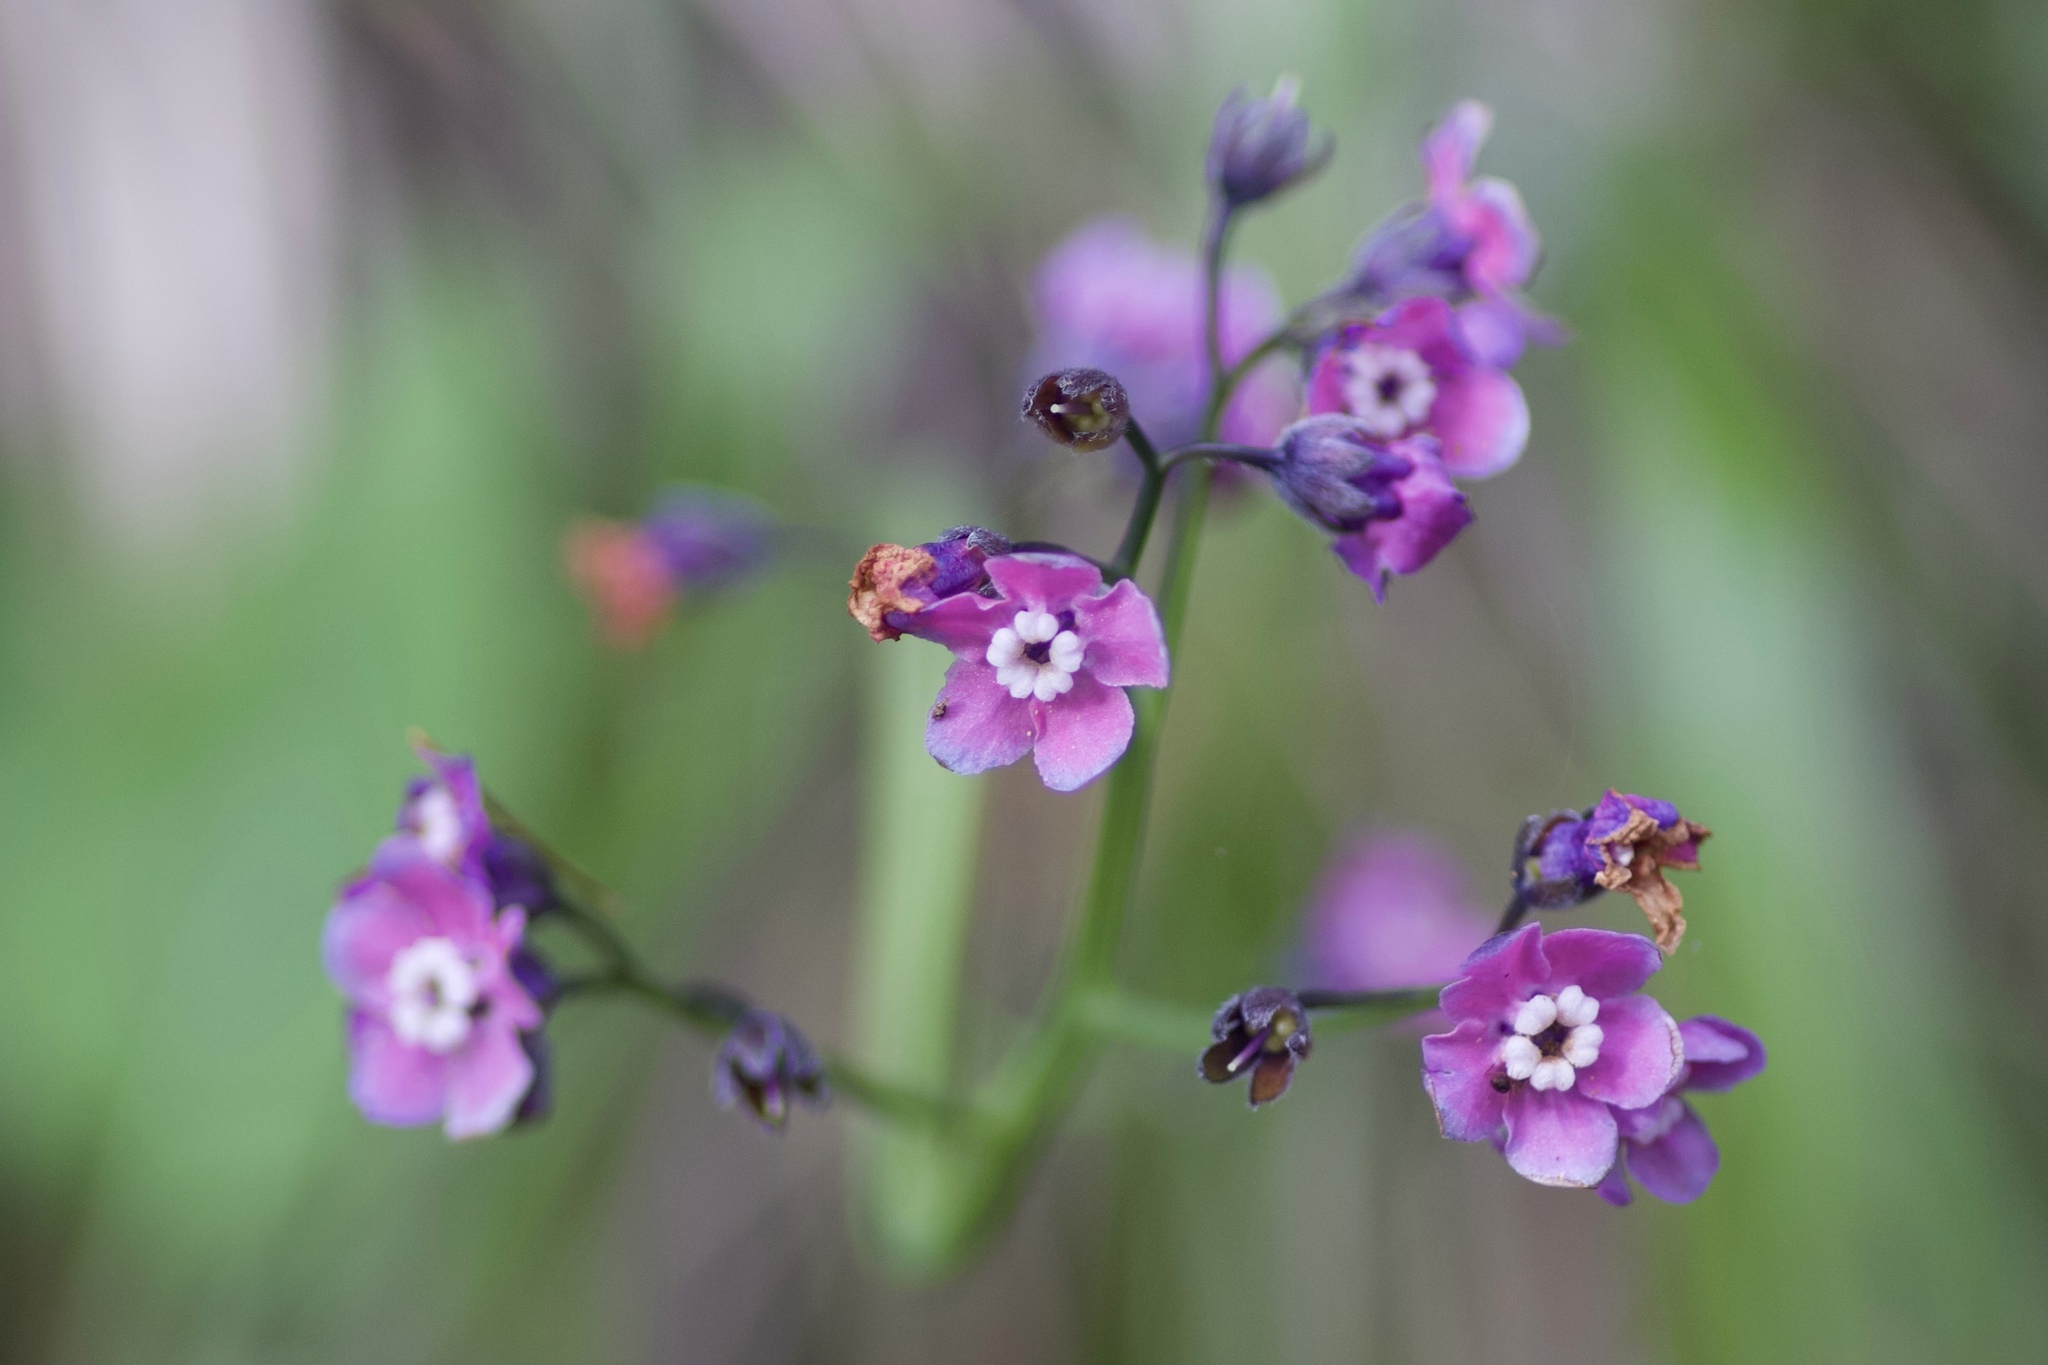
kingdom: Plantae
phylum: Tracheophyta
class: Magnoliopsida
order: Boraginales
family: Boraginaceae
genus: Adelinia
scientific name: Adelinia grande
